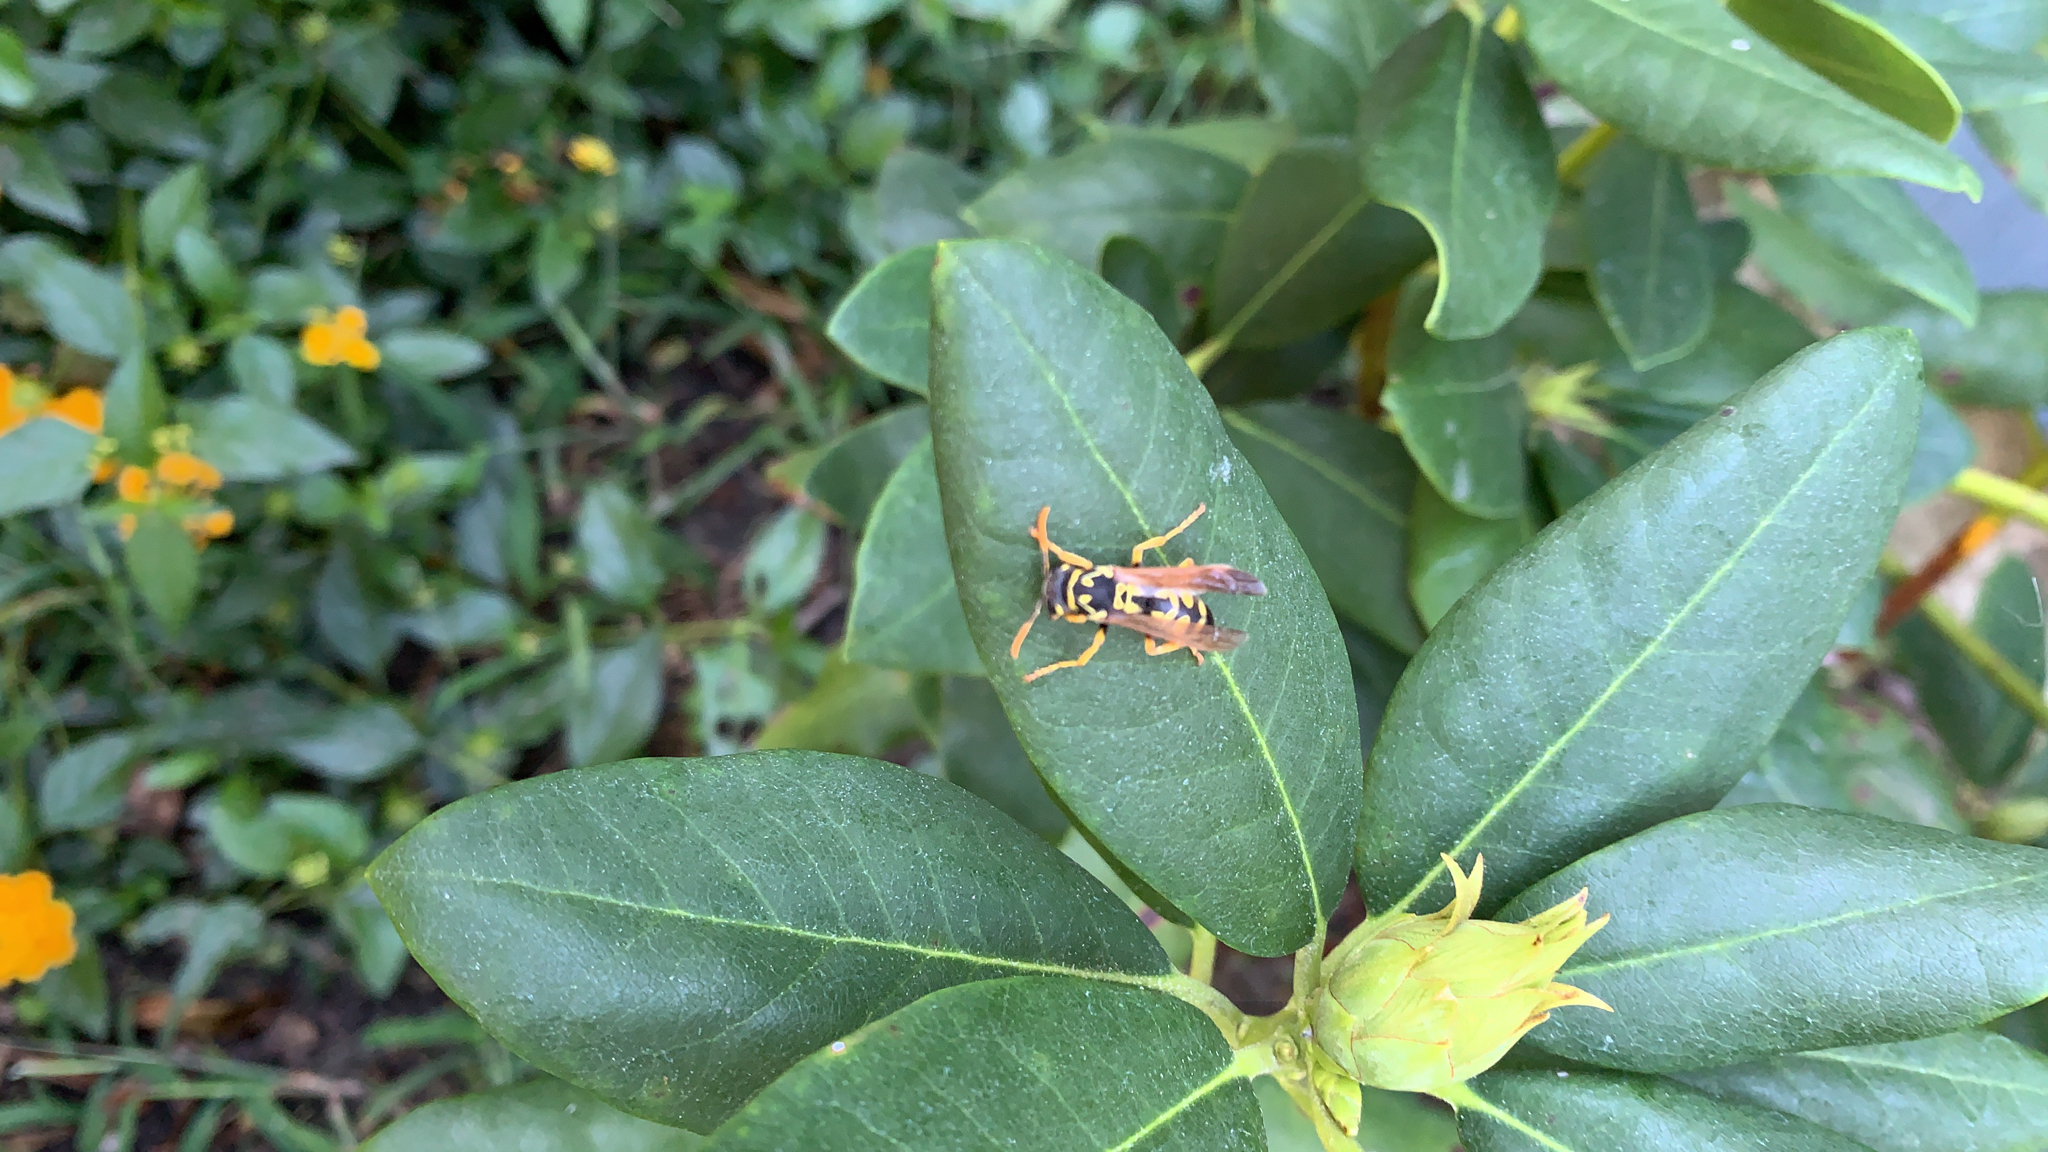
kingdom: Animalia
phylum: Arthropoda
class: Insecta
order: Hymenoptera
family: Eumenidae
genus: Polistes
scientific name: Polistes dominula
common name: Paper wasp
